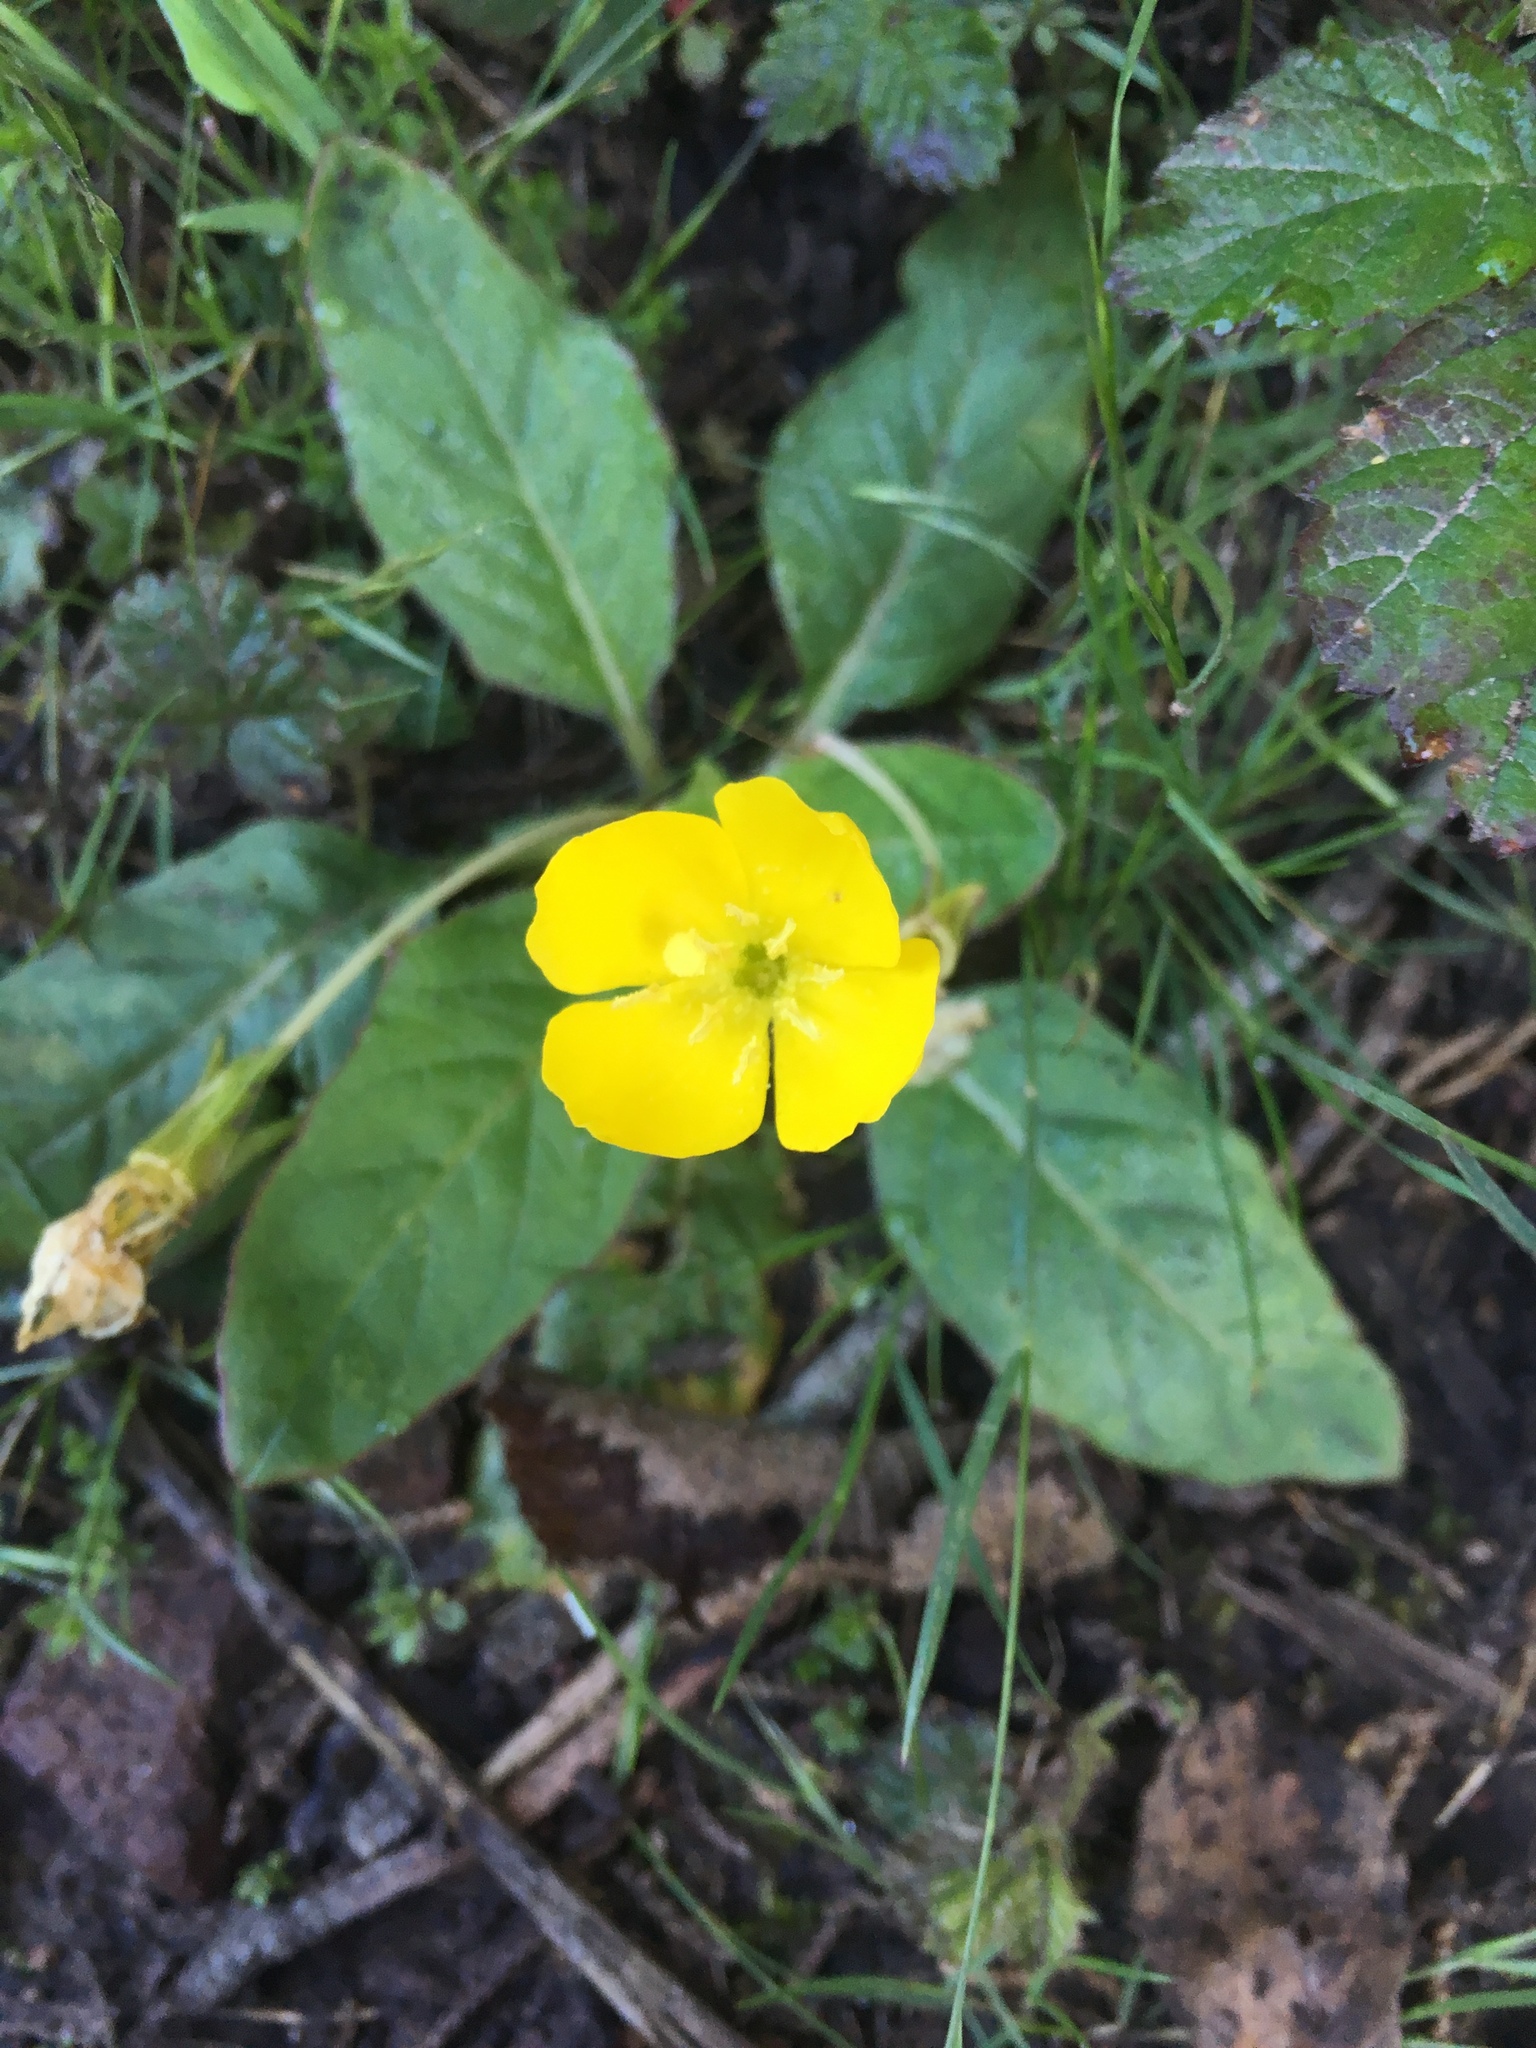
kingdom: Plantae
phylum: Tracheophyta
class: Magnoliopsida
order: Myrtales
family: Onagraceae
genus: Taraxia
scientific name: Taraxia ovata
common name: Goldeneggs
